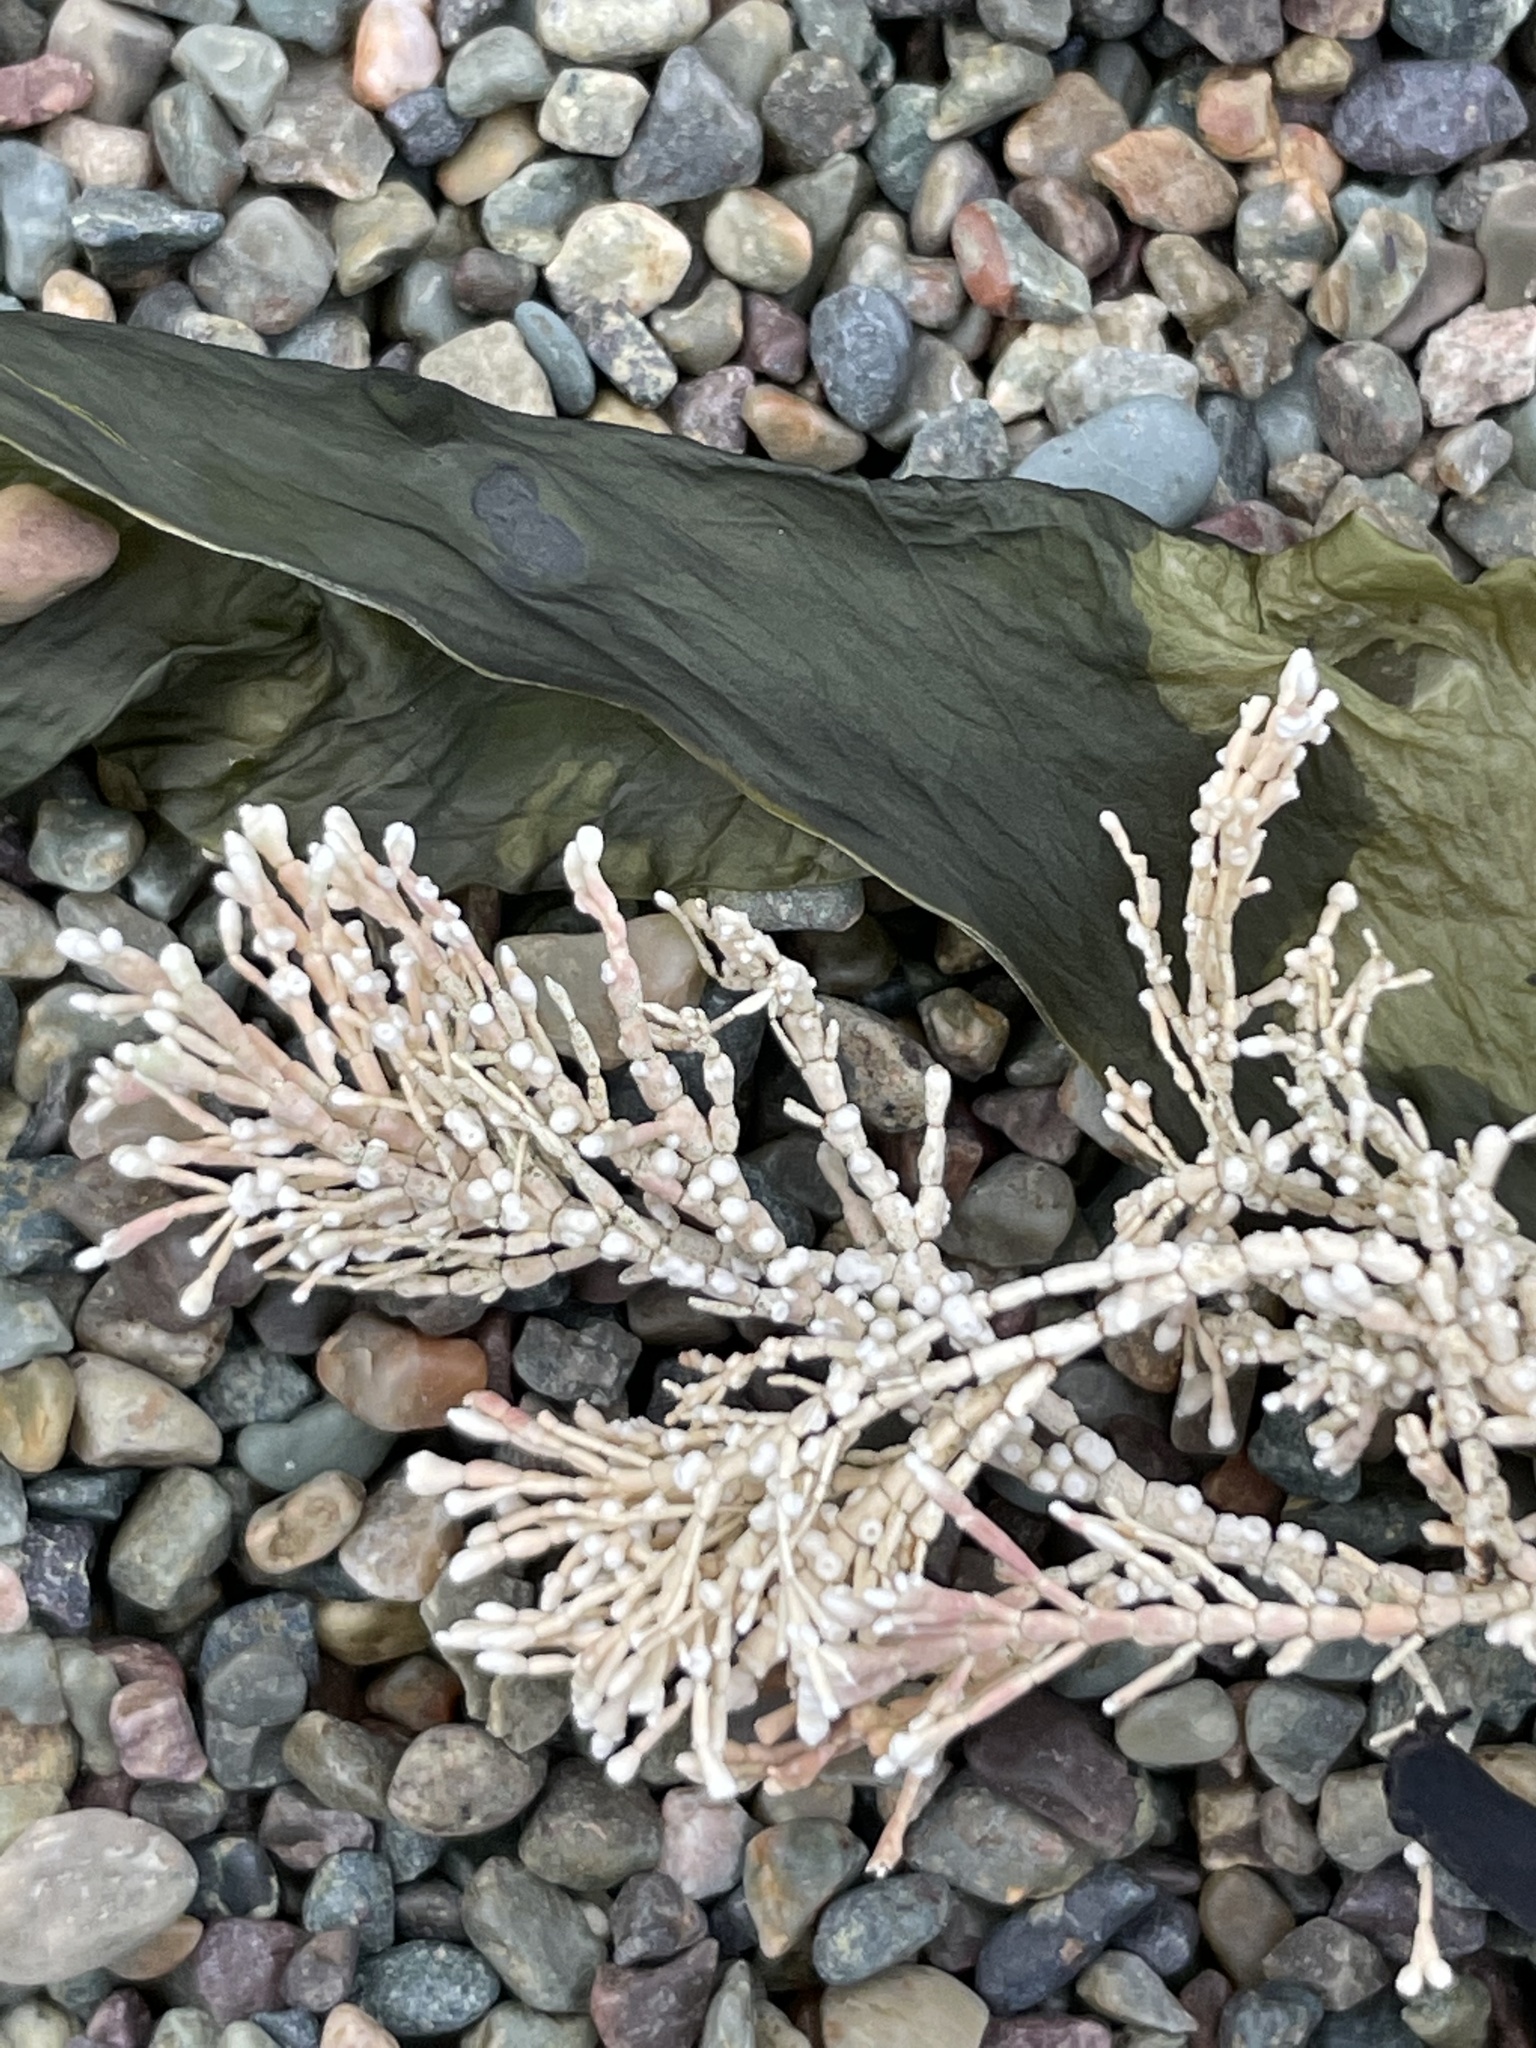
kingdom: Plantae
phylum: Rhodophyta
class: Florideophyceae
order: Corallinales
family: Corallinaceae
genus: Corallina
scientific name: Corallina officinalis
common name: Coral weed
